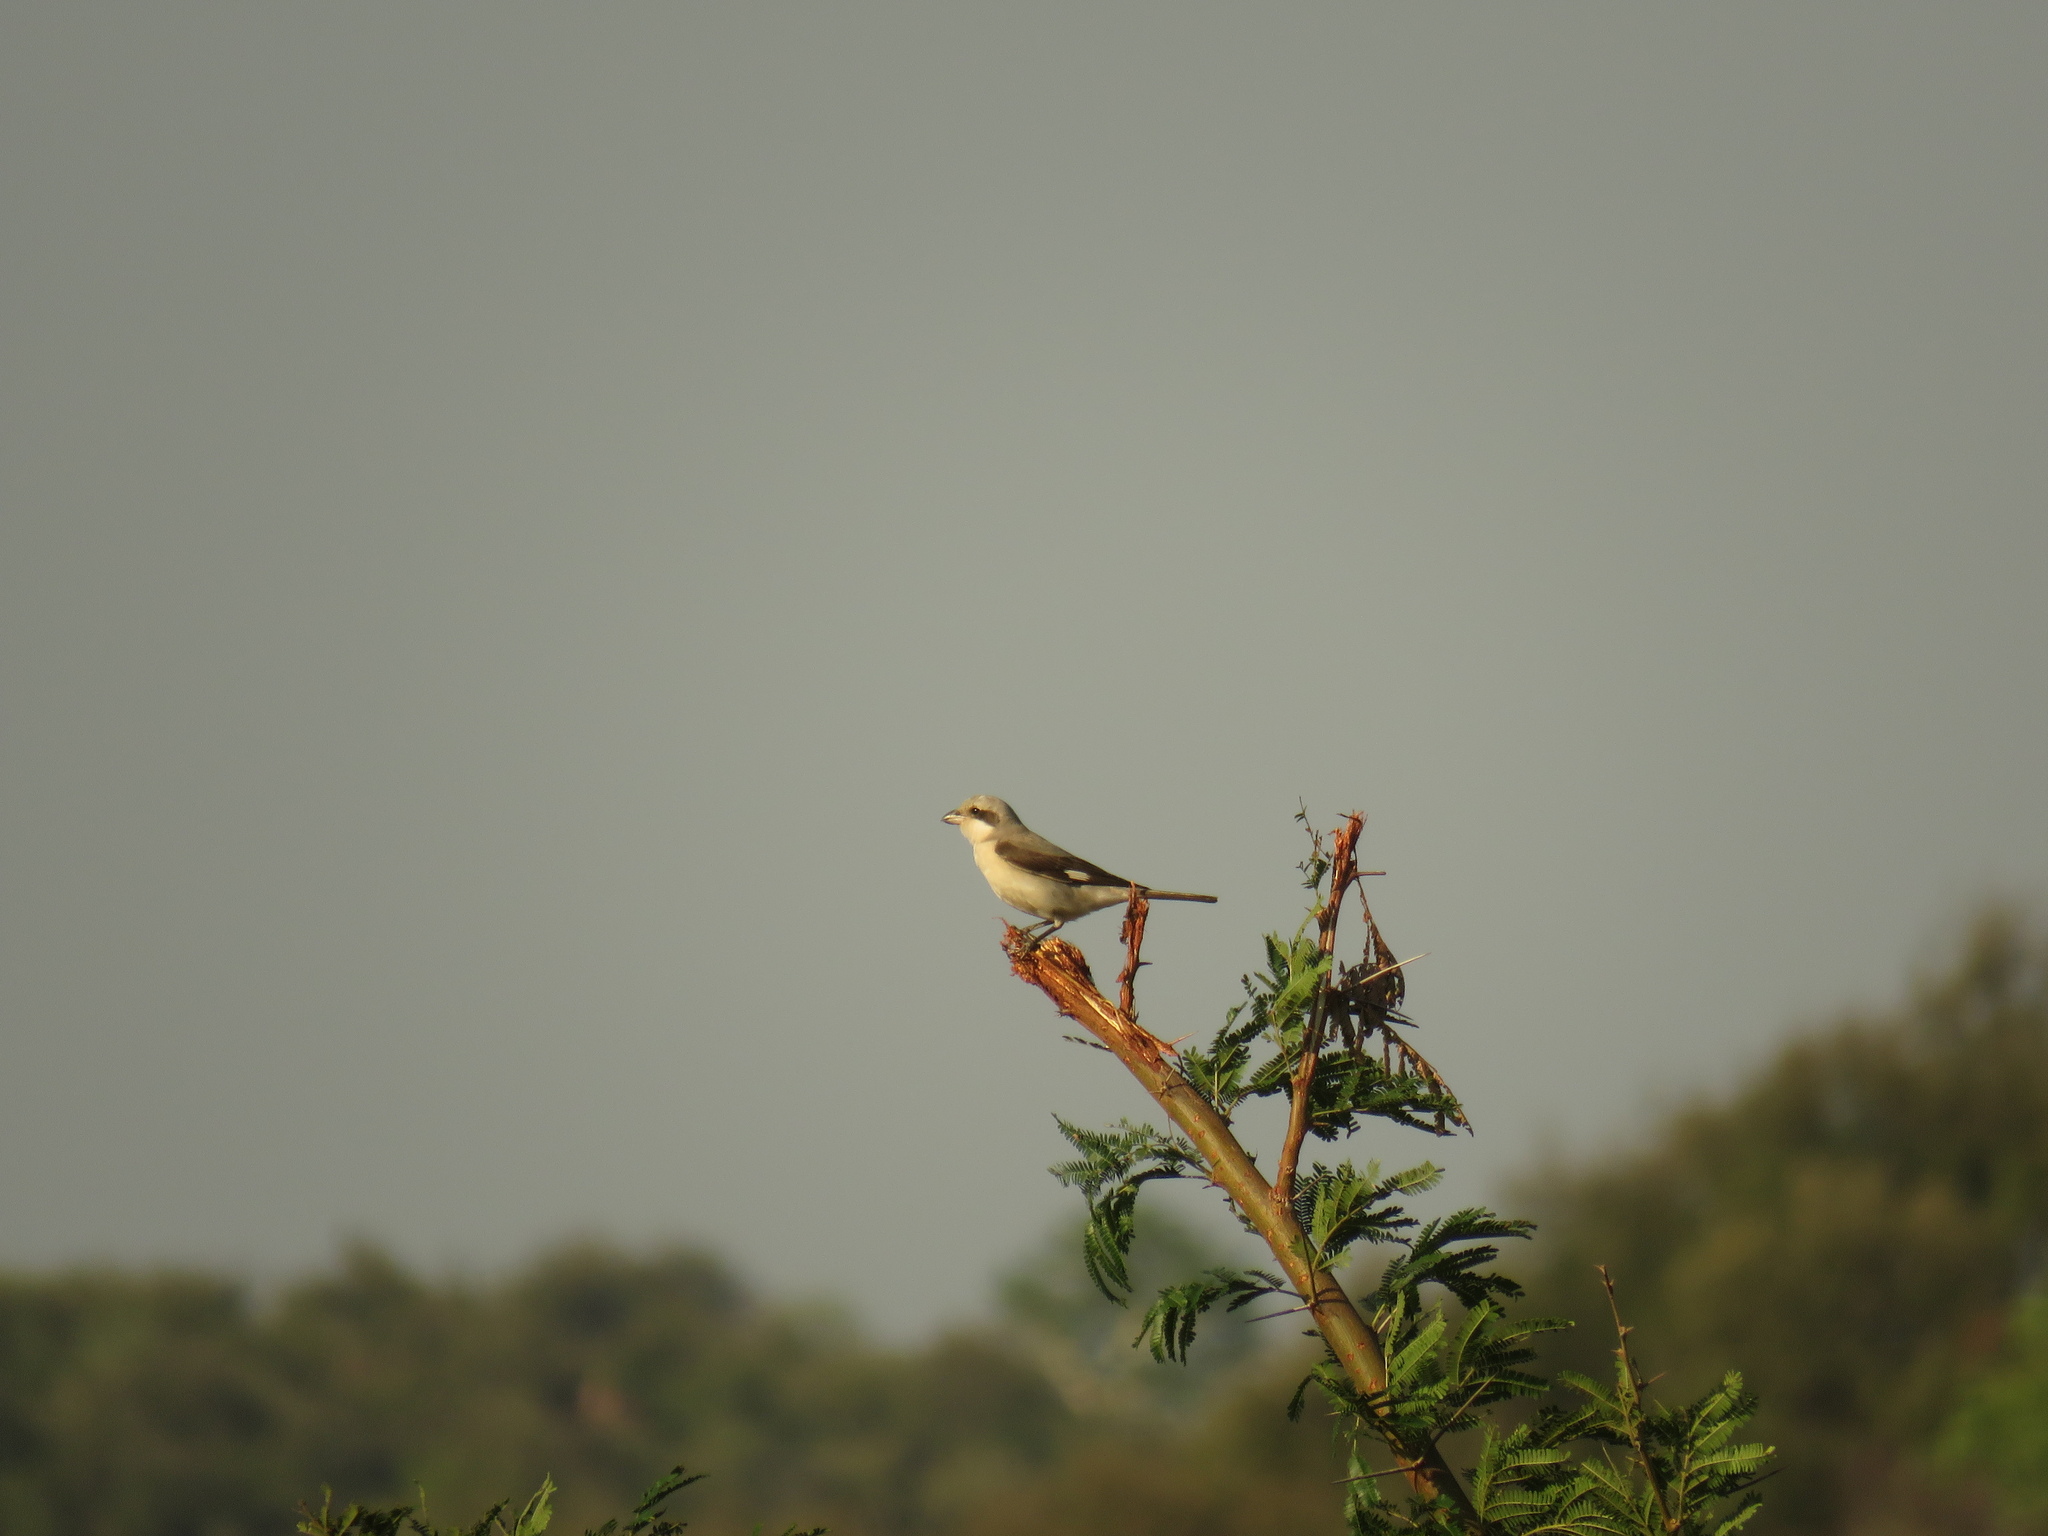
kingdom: Animalia
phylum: Chordata
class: Aves
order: Passeriformes
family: Laniidae
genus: Lanius
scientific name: Lanius minor
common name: Lesser grey shrike
